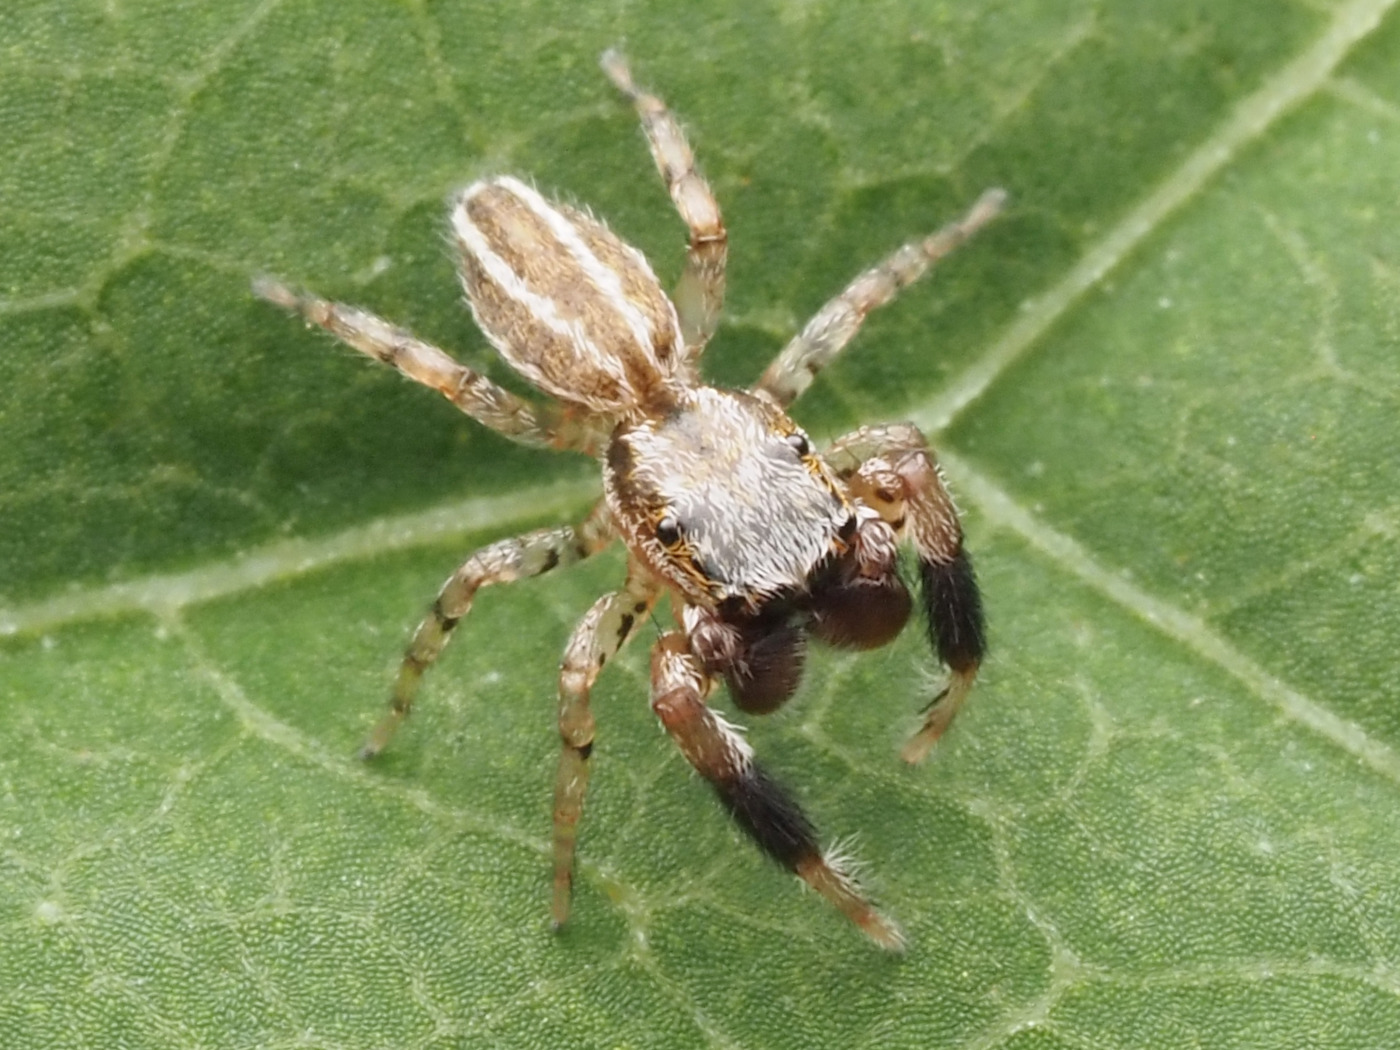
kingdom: Animalia
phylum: Arthropoda
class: Arachnida
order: Araneae
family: Salticidae
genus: Marpissa
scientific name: Marpissa lineata
